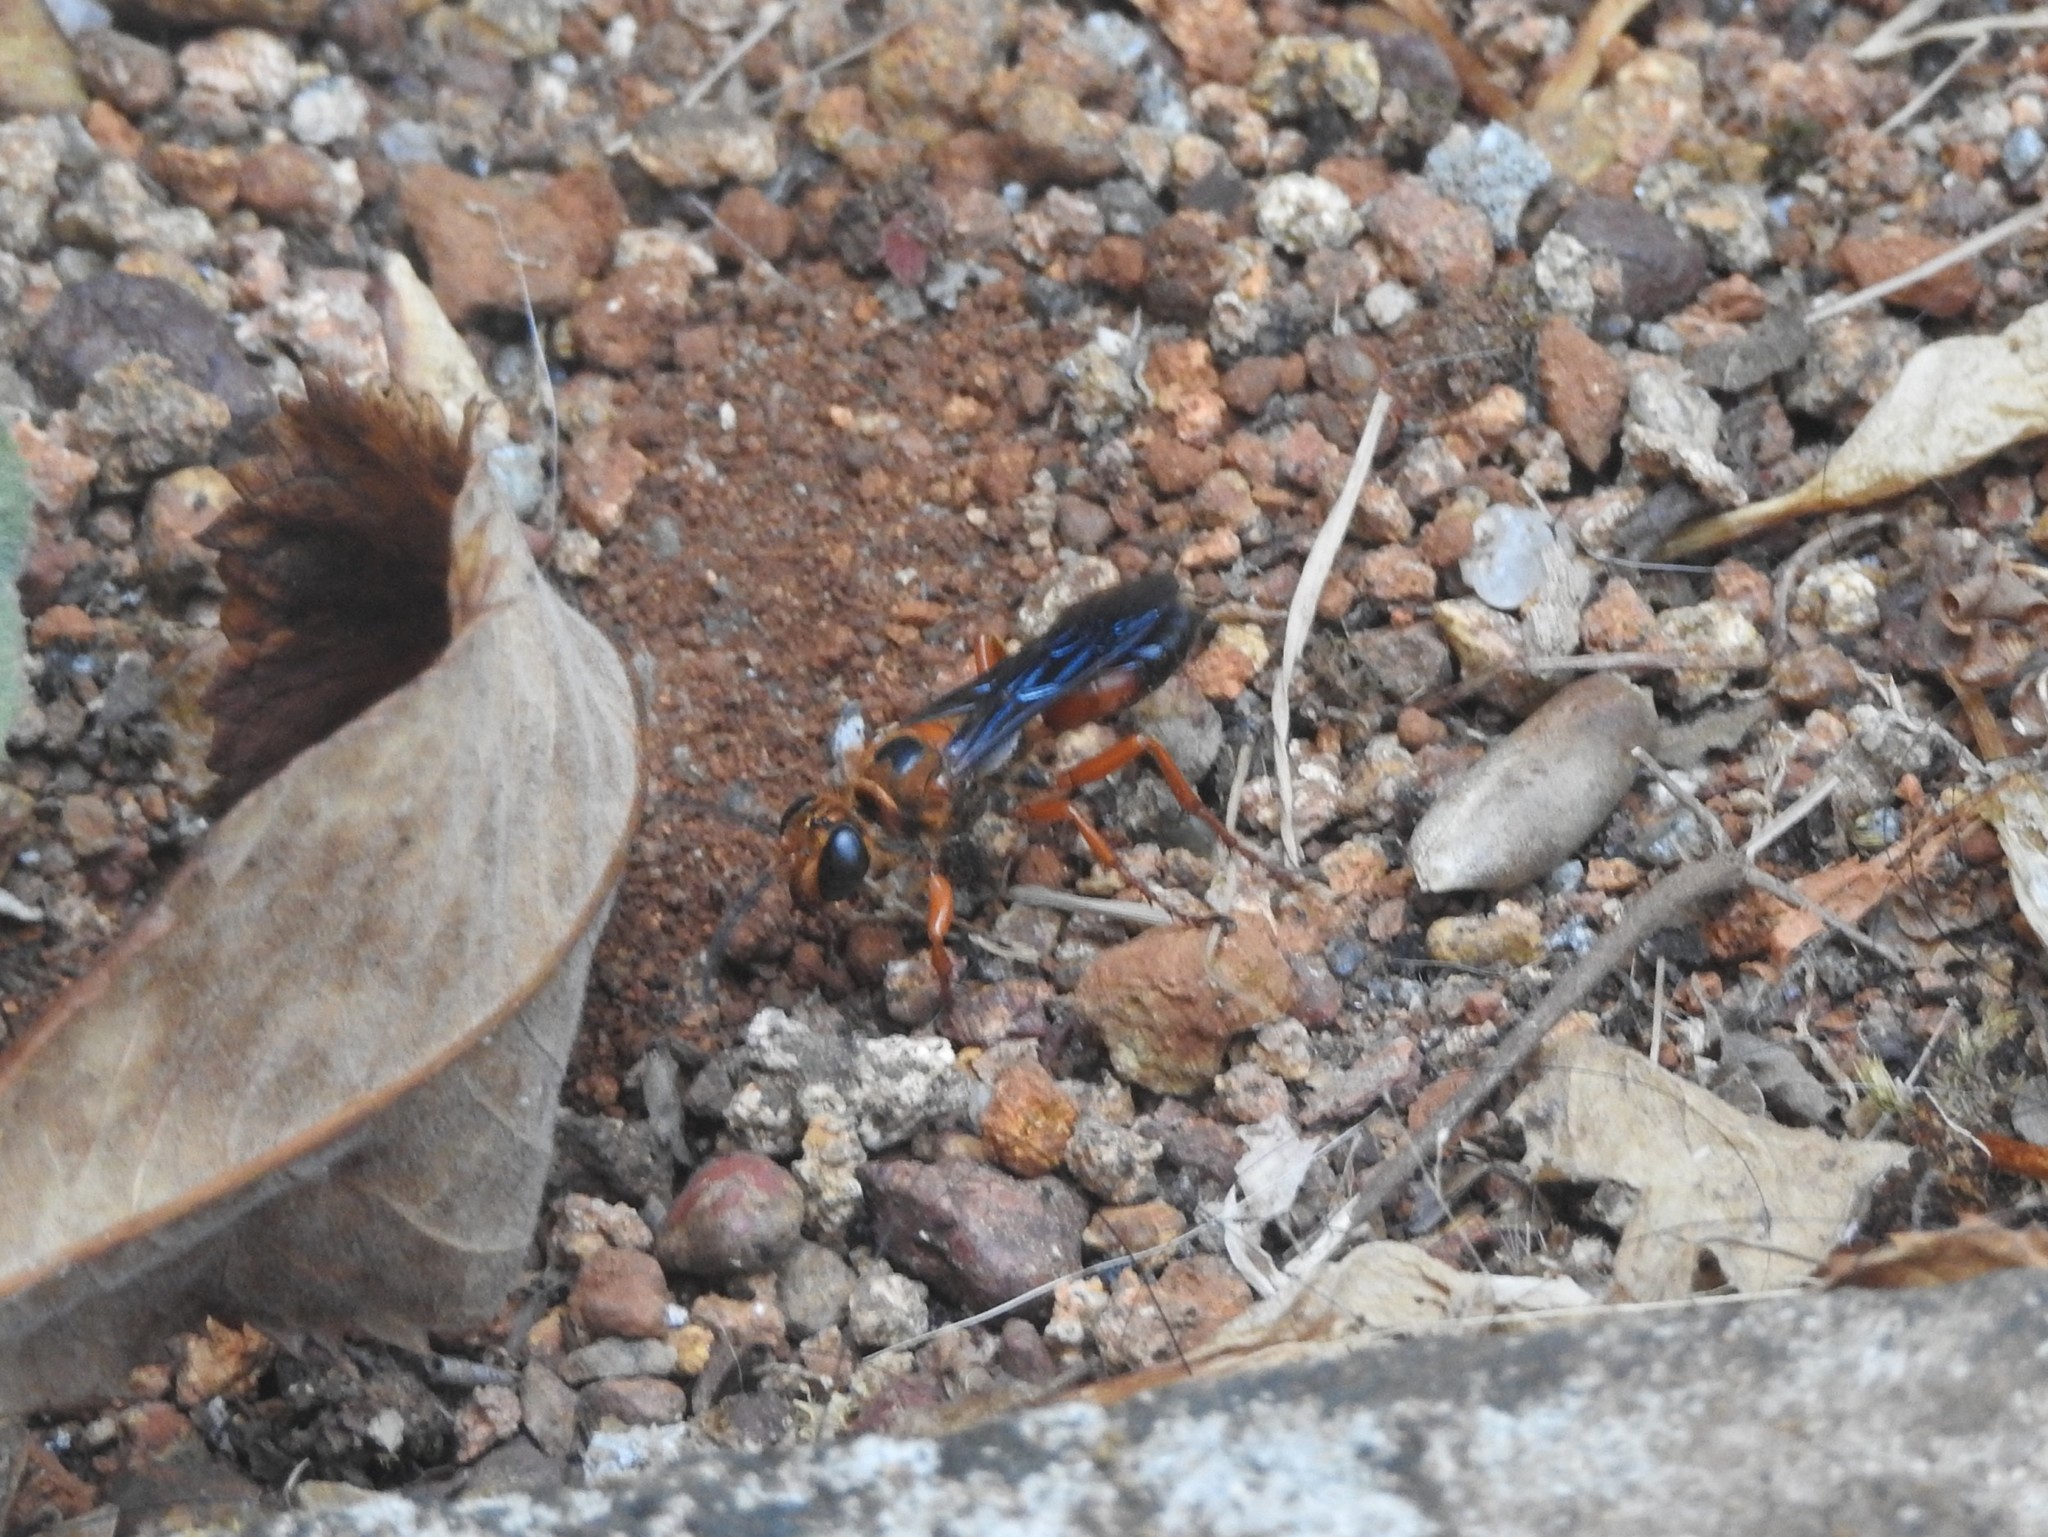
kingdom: Animalia
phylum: Arthropoda
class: Insecta
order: Hymenoptera
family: Sphecidae
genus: Sphex
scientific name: Sphex sericeus
